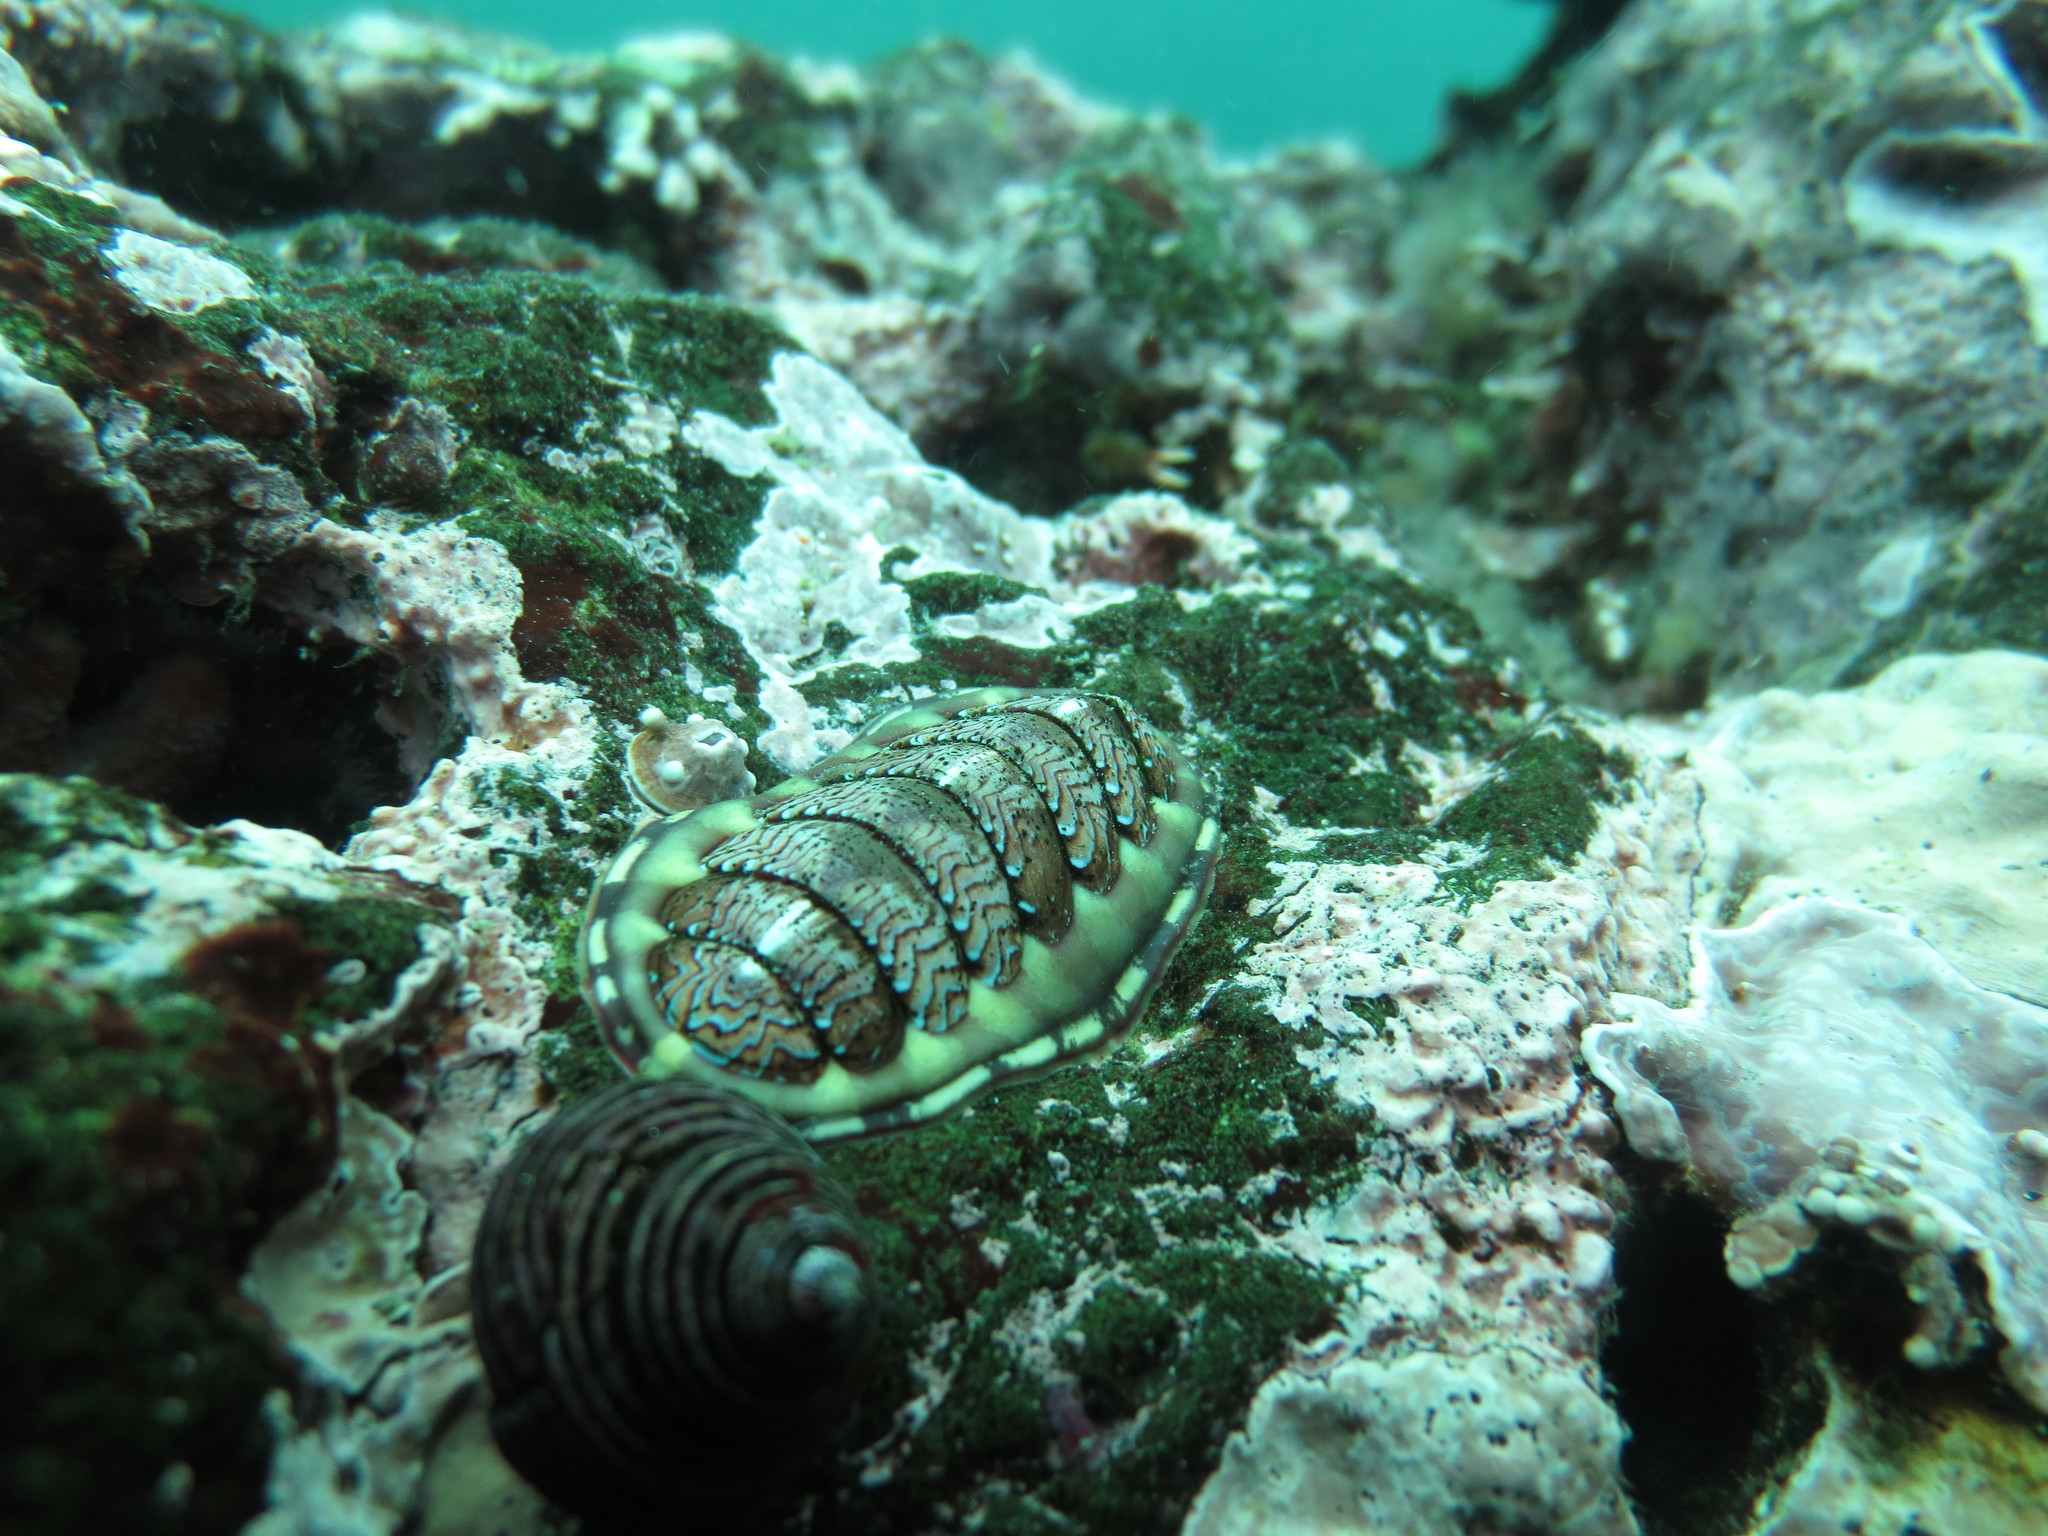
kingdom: Animalia
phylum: Mollusca
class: Polyplacophora
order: Chitonida
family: Tonicellidae
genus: Tonicella
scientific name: Tonicella lokii
